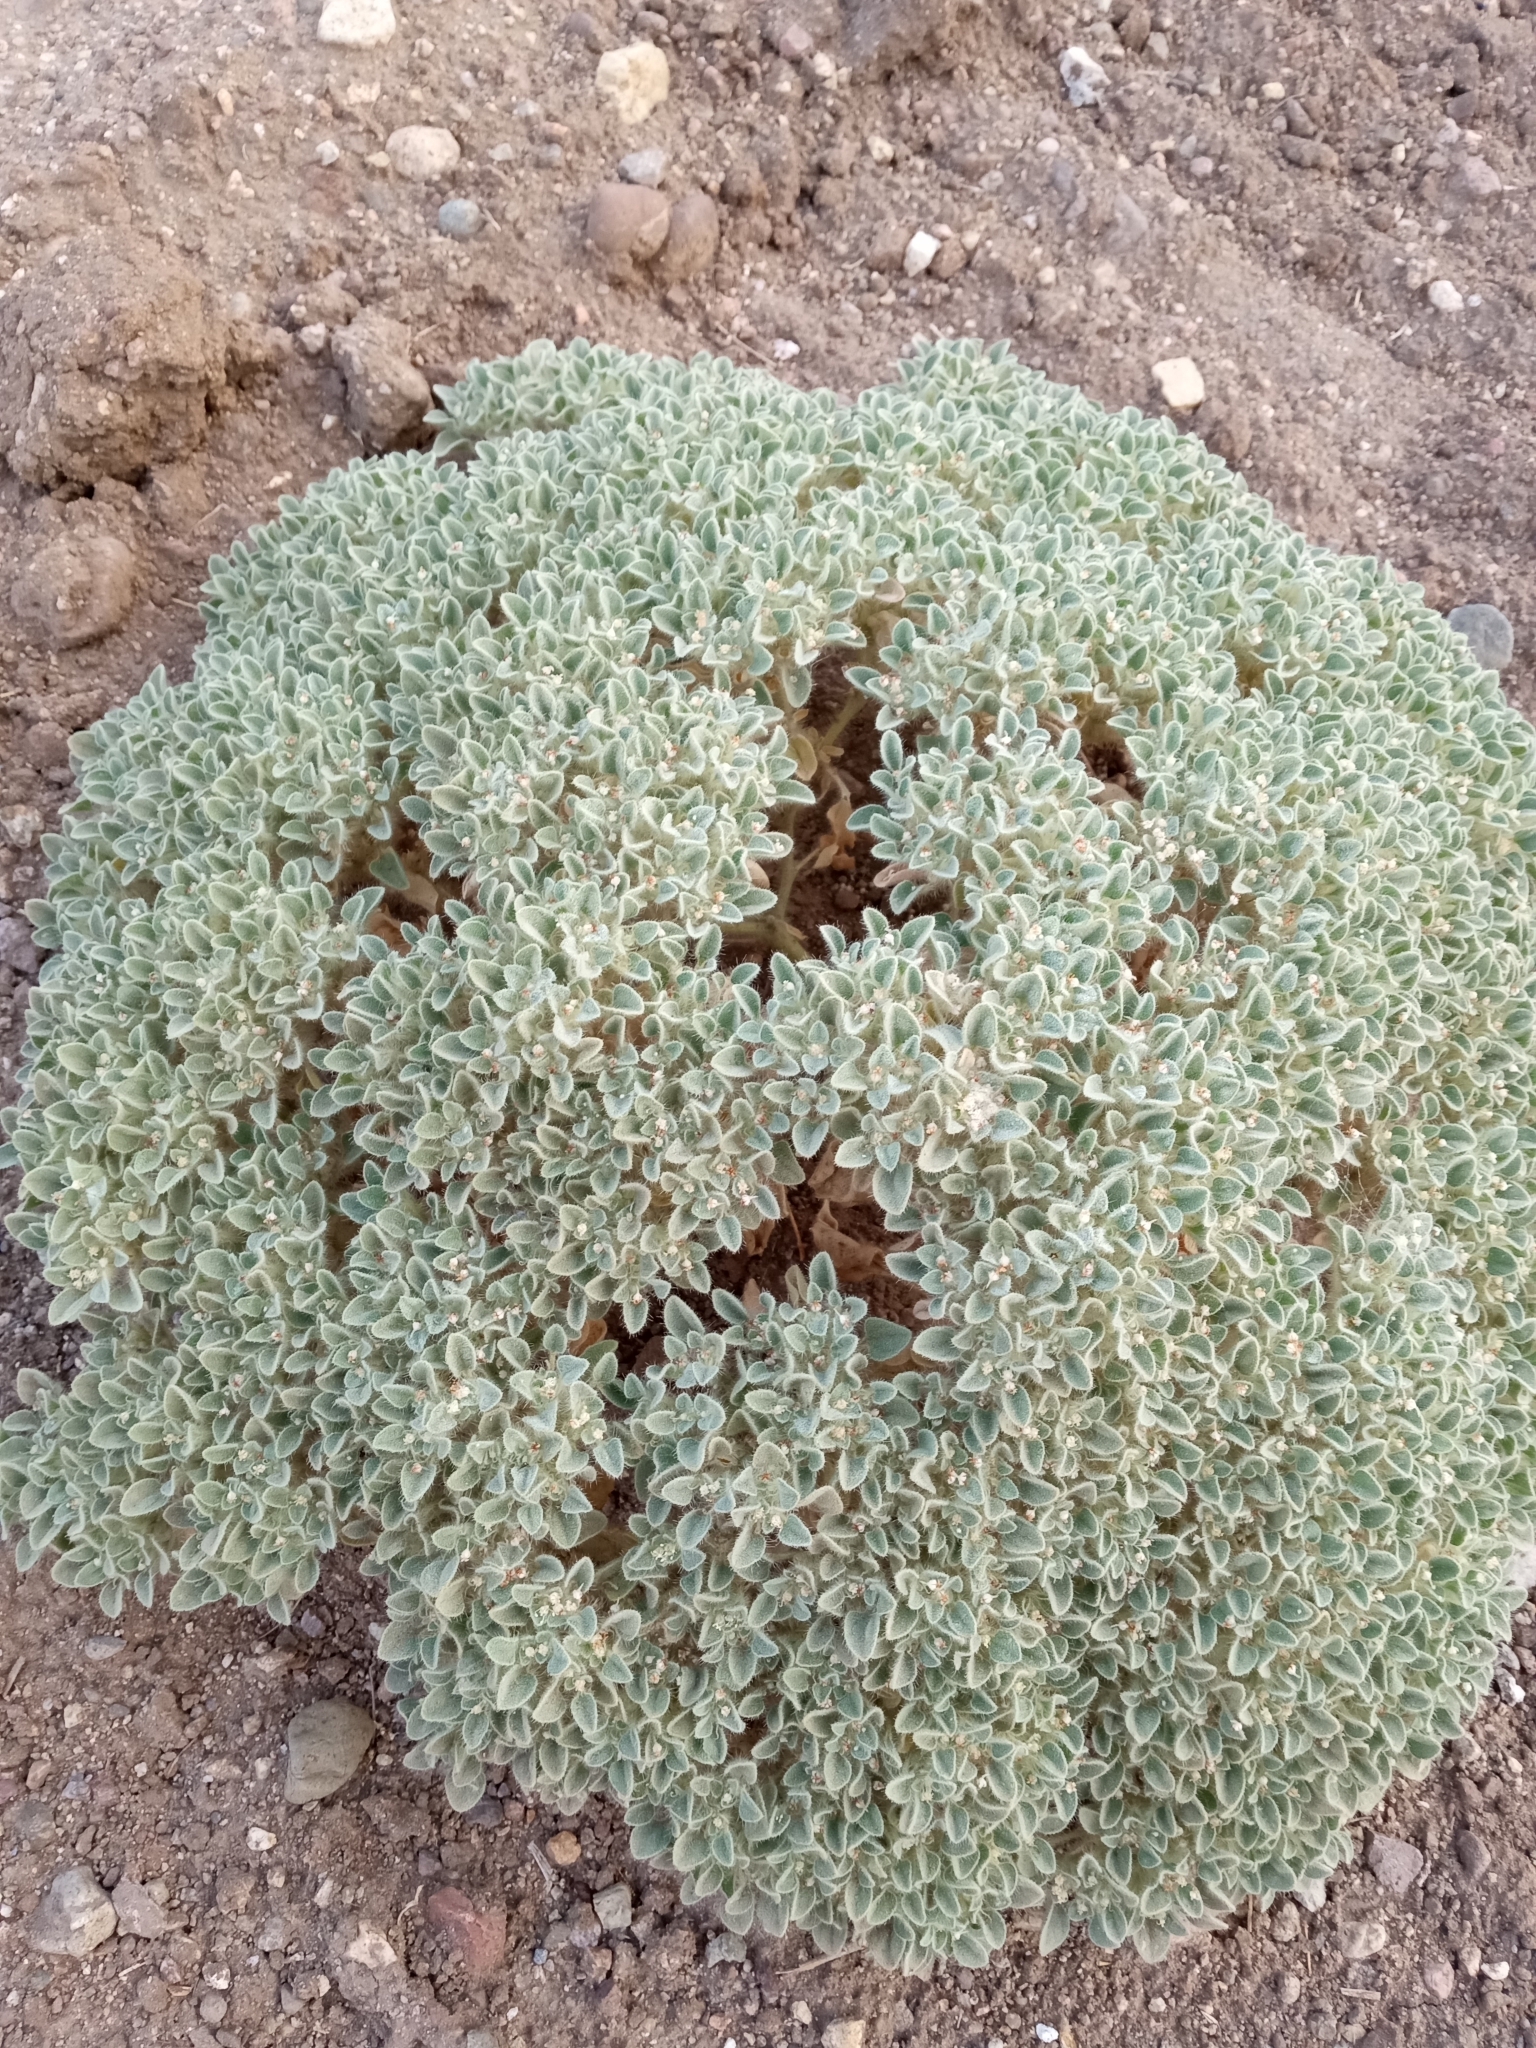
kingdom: Plantae
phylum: Tracheophyta
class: Magnoliopsida
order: Malpighiales
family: Euphorbiaceae
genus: Croton
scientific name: Croton setiger
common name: Dove weed
